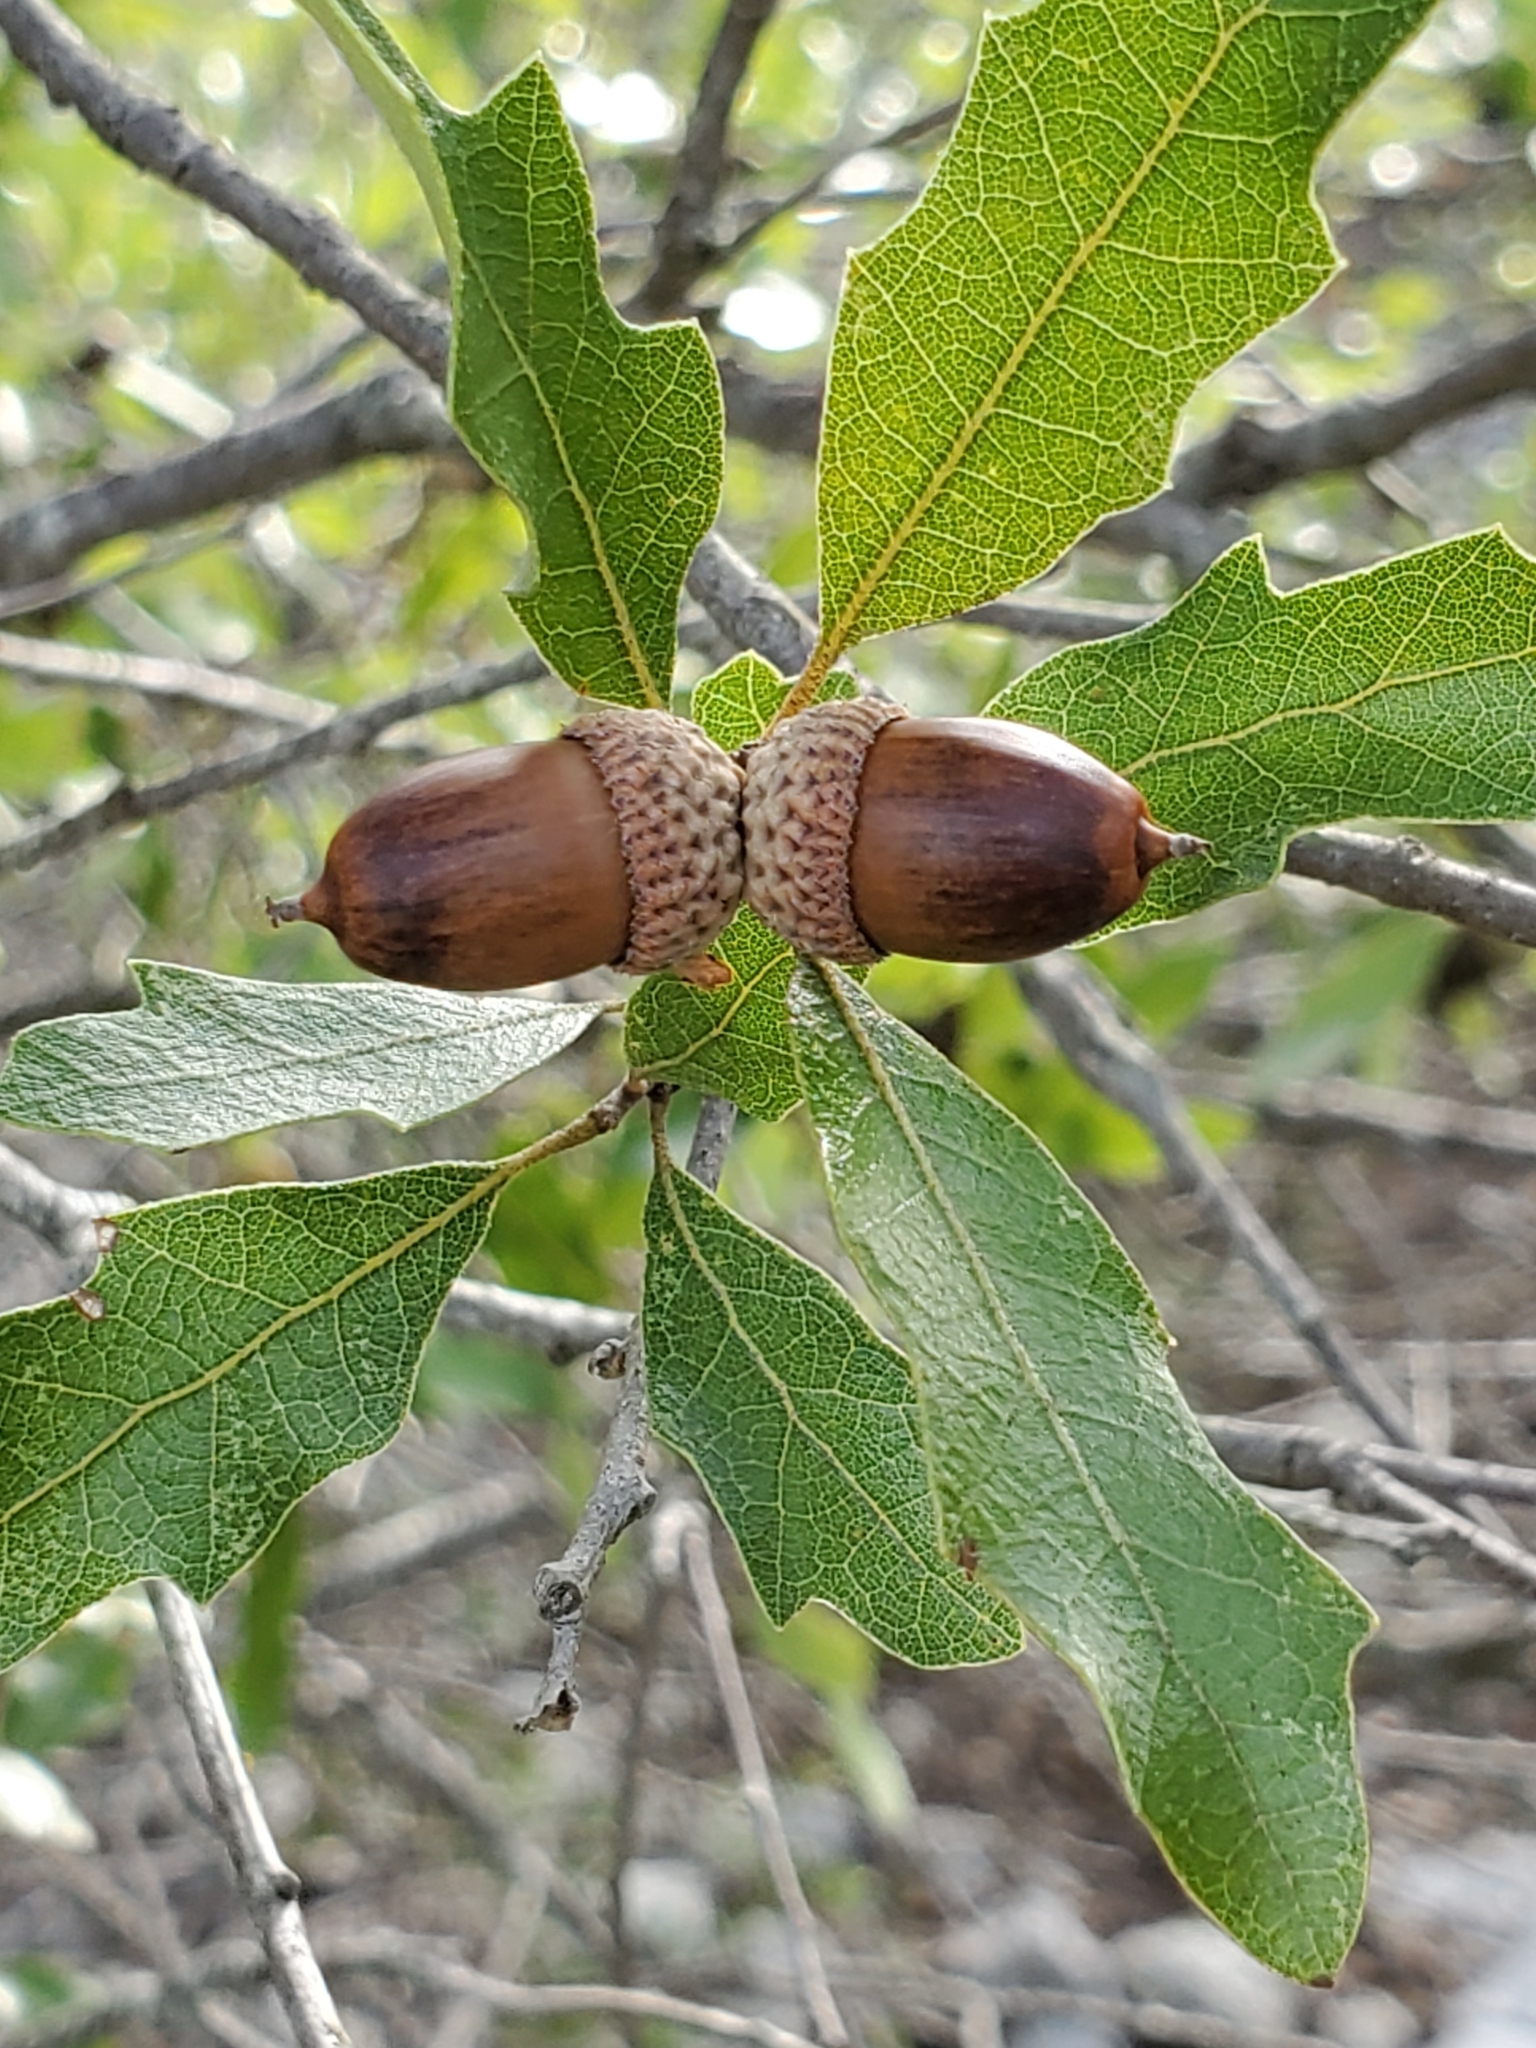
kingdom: Plantae
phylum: Tracheophyta
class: Magnoliopsida
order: Fagales
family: Fagaceae
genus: Quercus
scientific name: Quercus vaseyana
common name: Sandpaper oak
